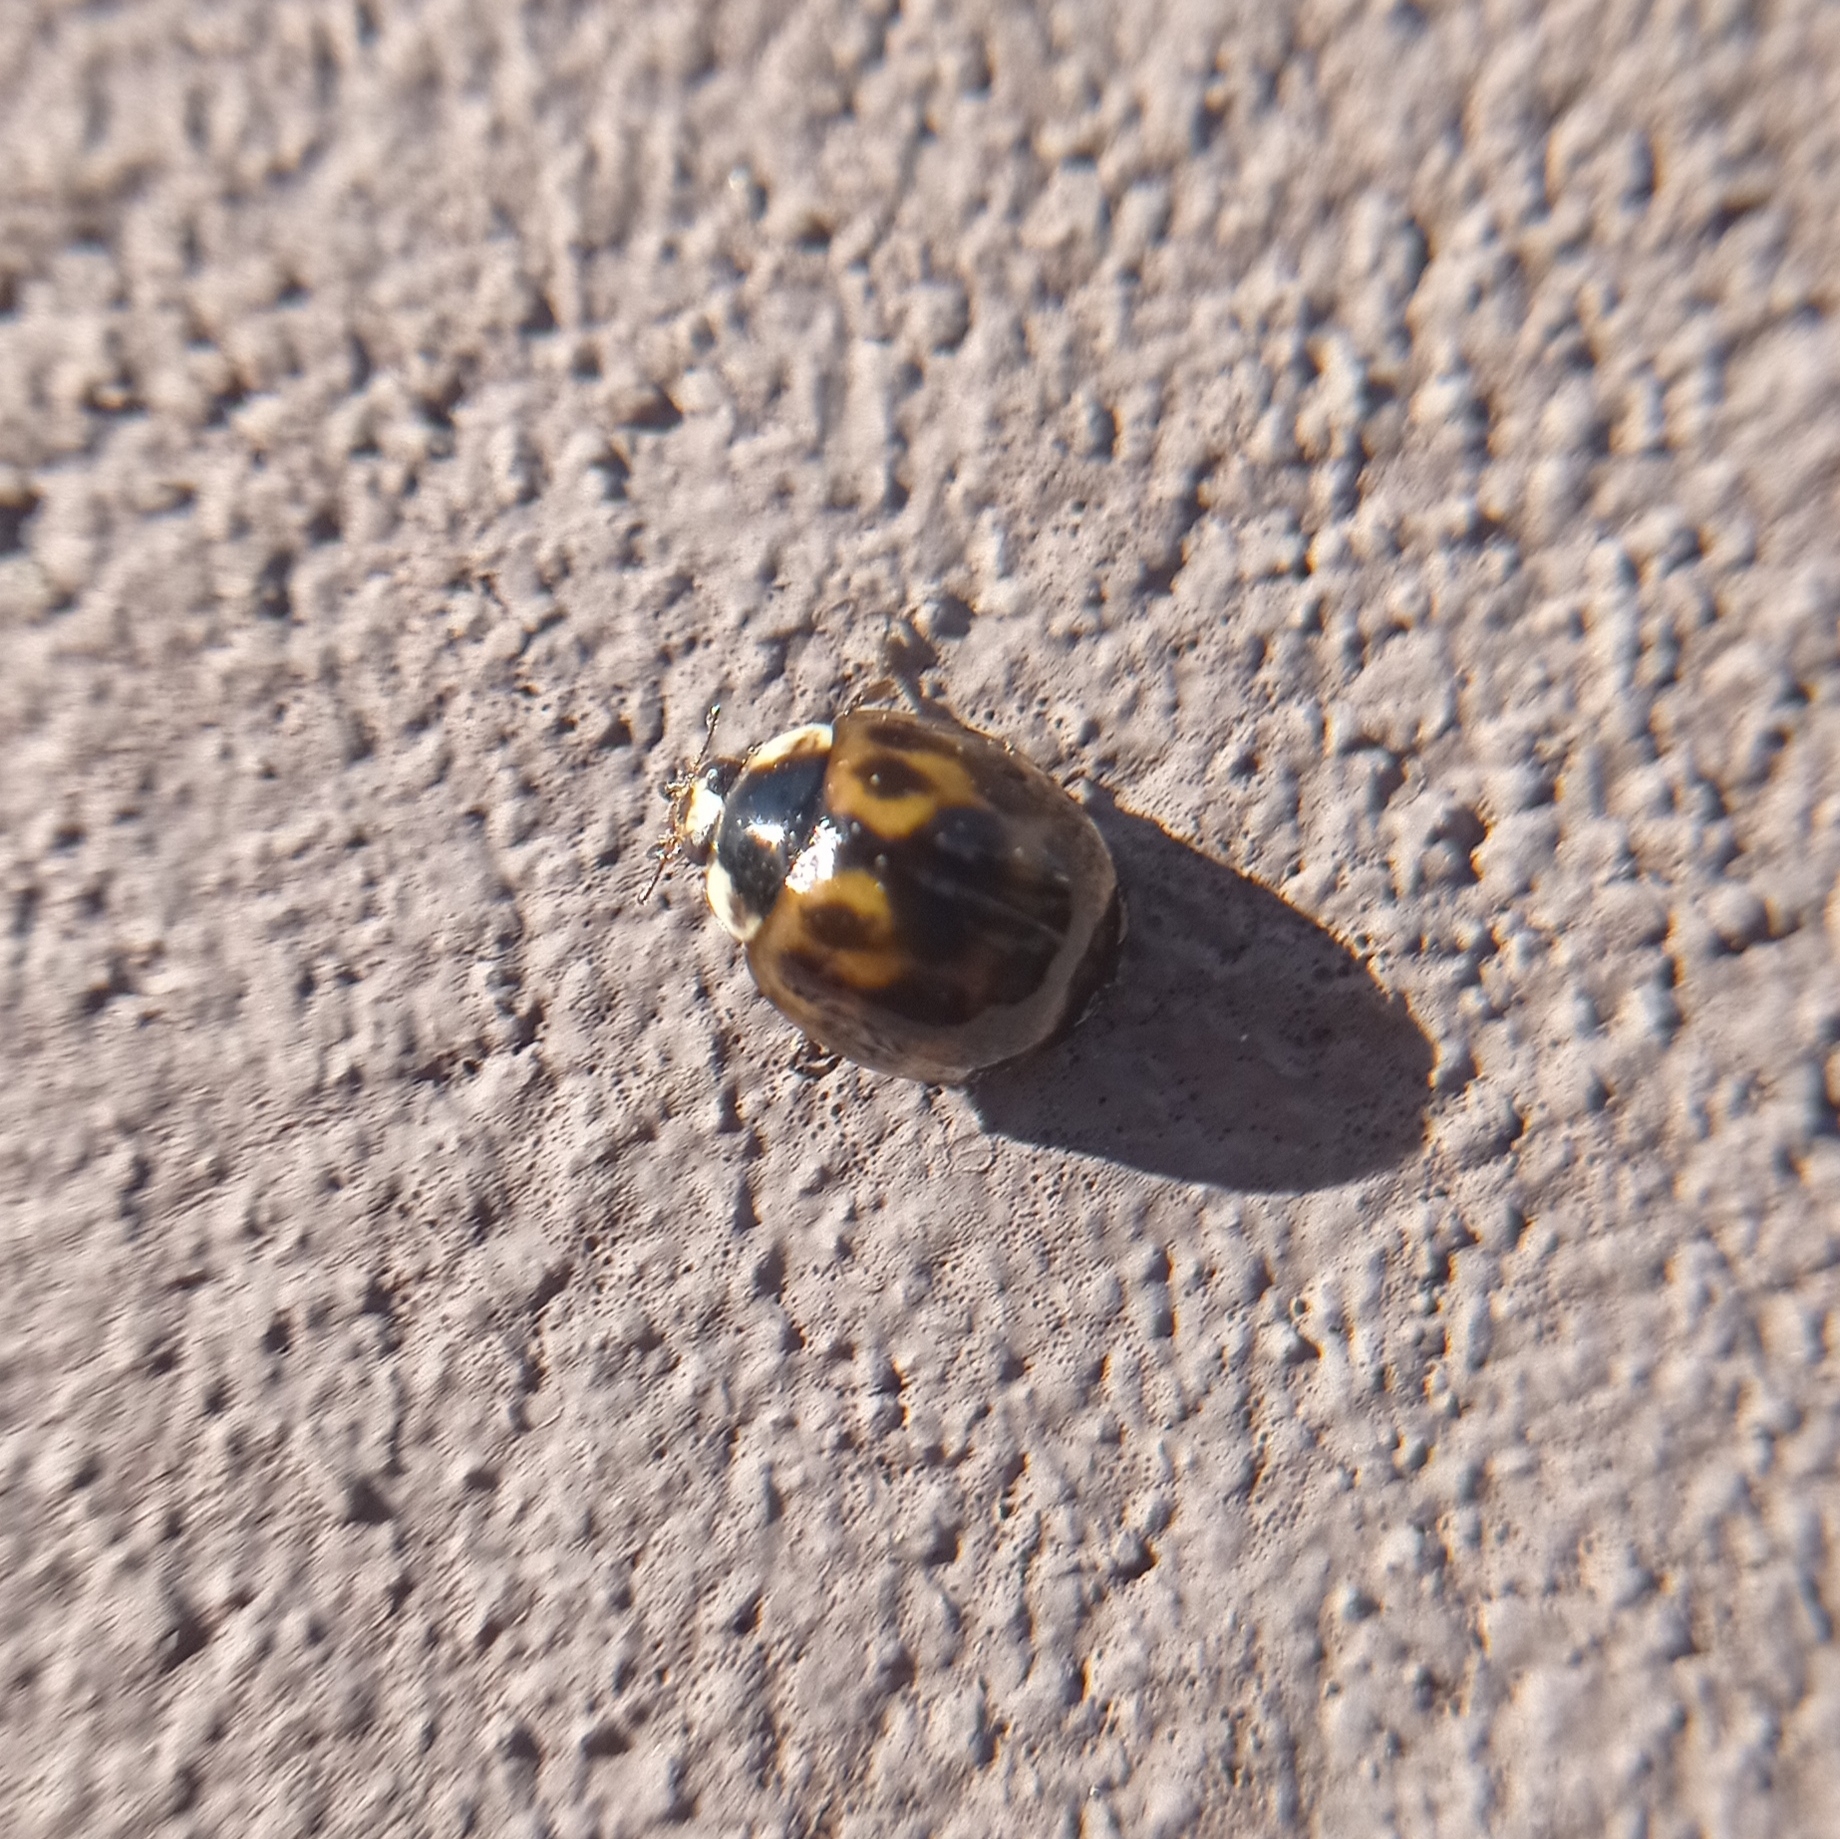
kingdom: Animalia
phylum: Arthropoda
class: Insecta
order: Coleoptera
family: Coccinellidae
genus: Harmonia
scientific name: Harmonia axyridis
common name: Harlequin ladybird
